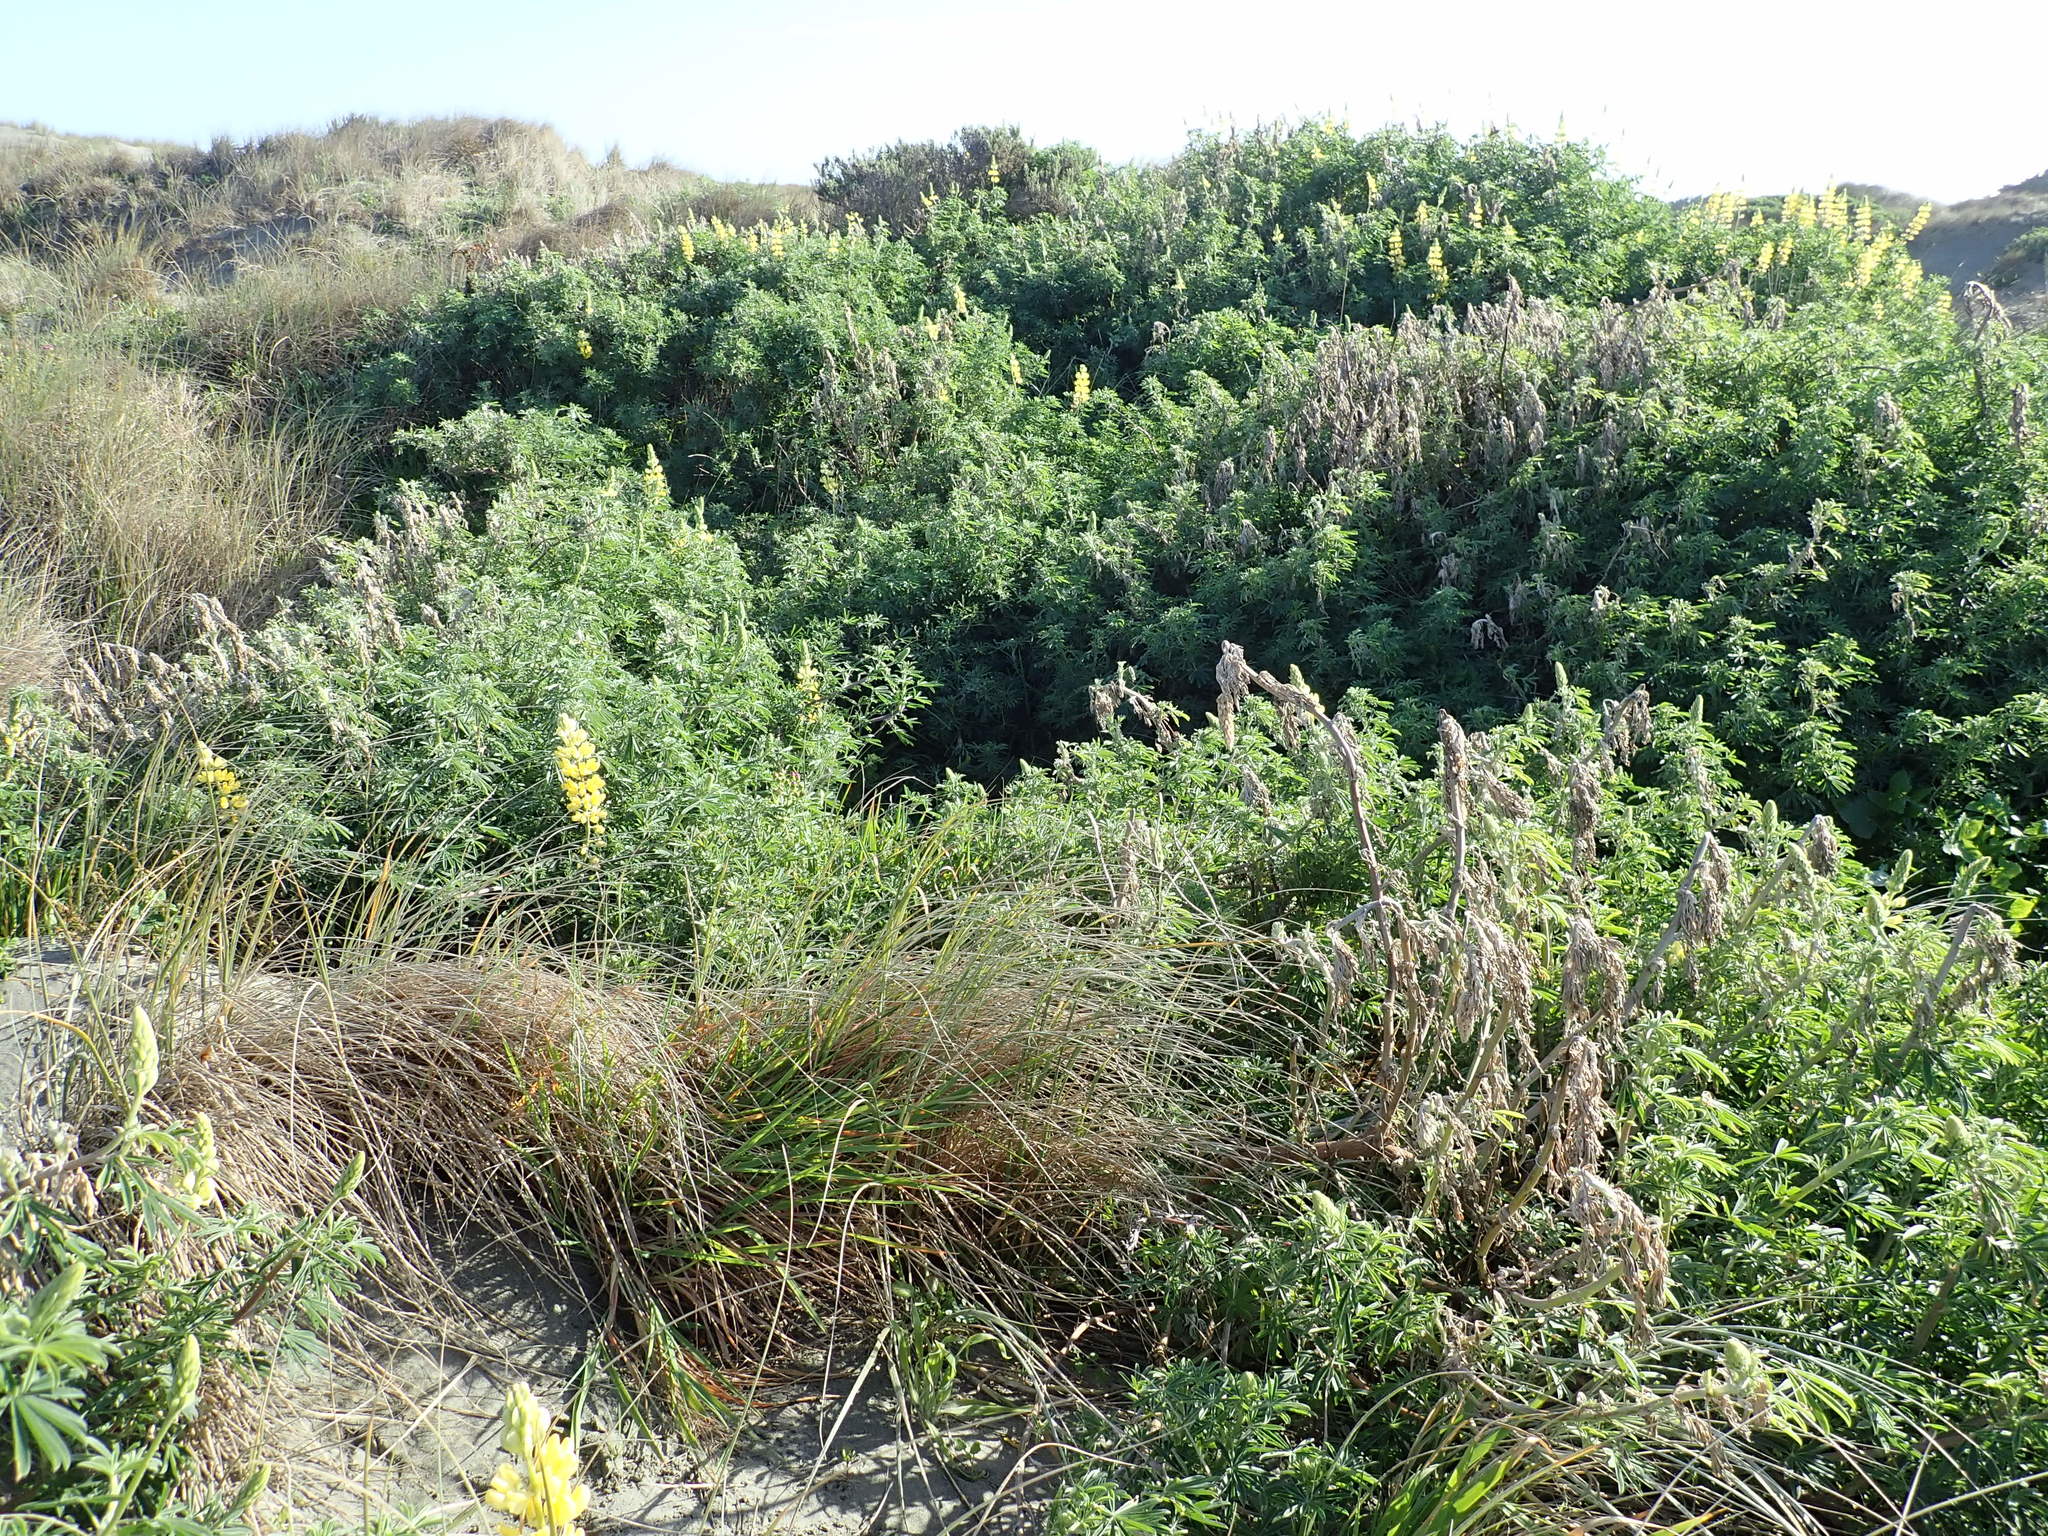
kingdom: Plantae
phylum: Tracheophyta
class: Magnoliopsida
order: Fabales
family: Fabaceae
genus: Lupinus
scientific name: Lupinus arboreus
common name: Yellow bush lupine
